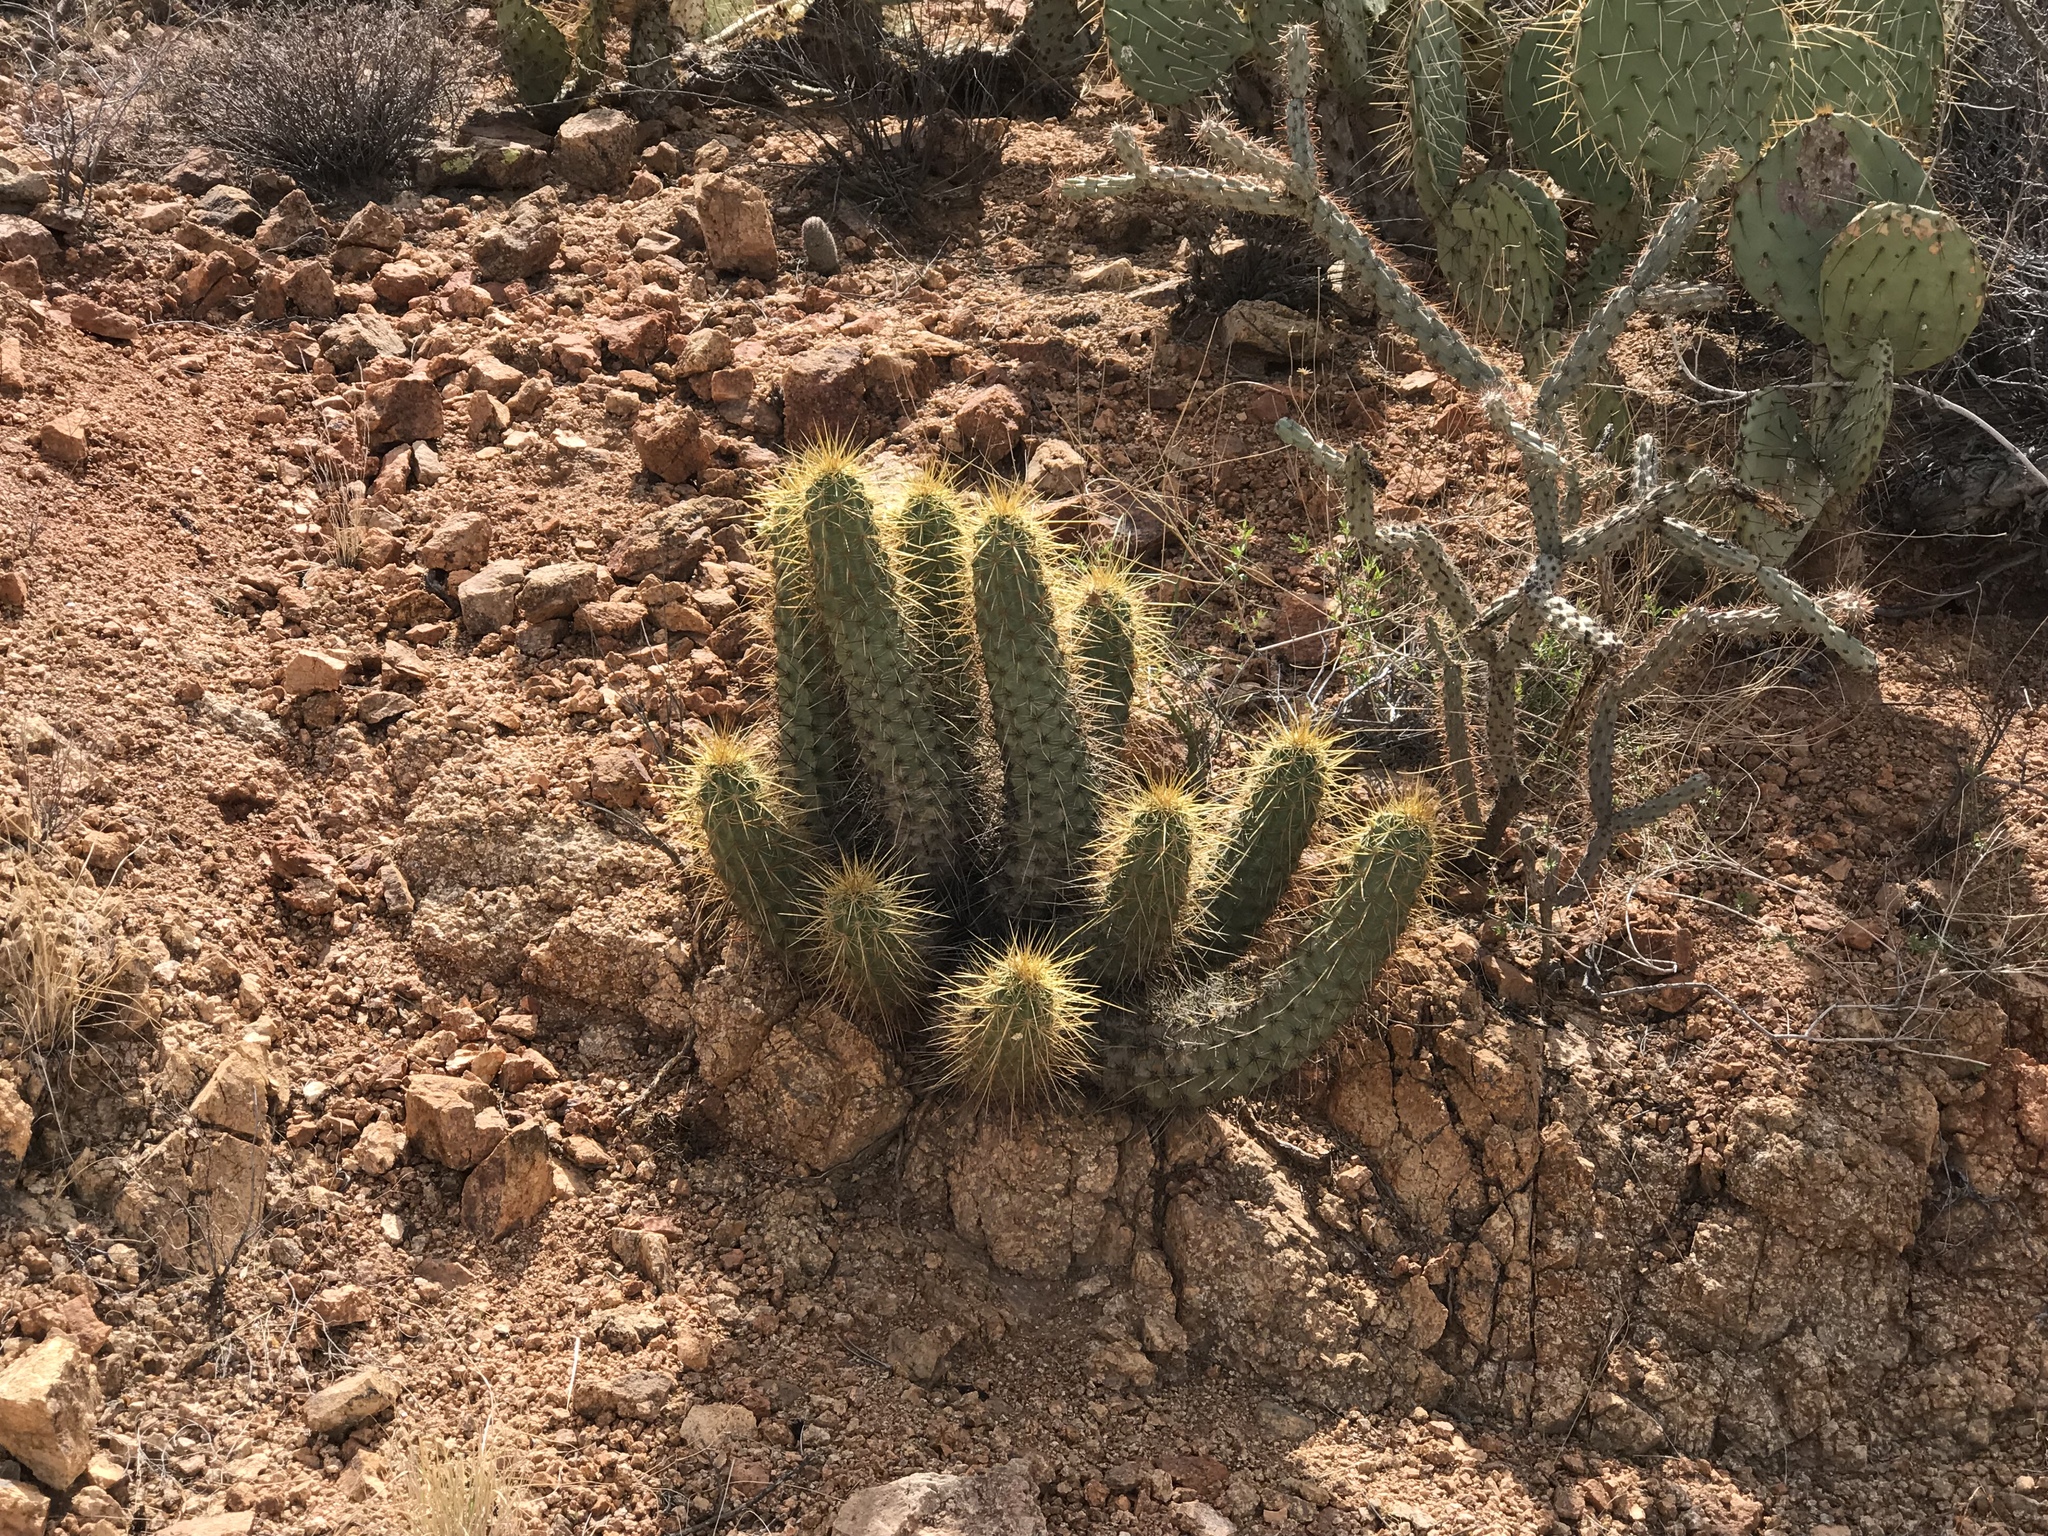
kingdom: Plantae
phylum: Tracheophyta
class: Magnoliopsida
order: Caryophyllales
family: Cactaceae
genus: Echinocereus
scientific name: Echinocereus nicholii
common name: Nichol's hedgehog cactus
